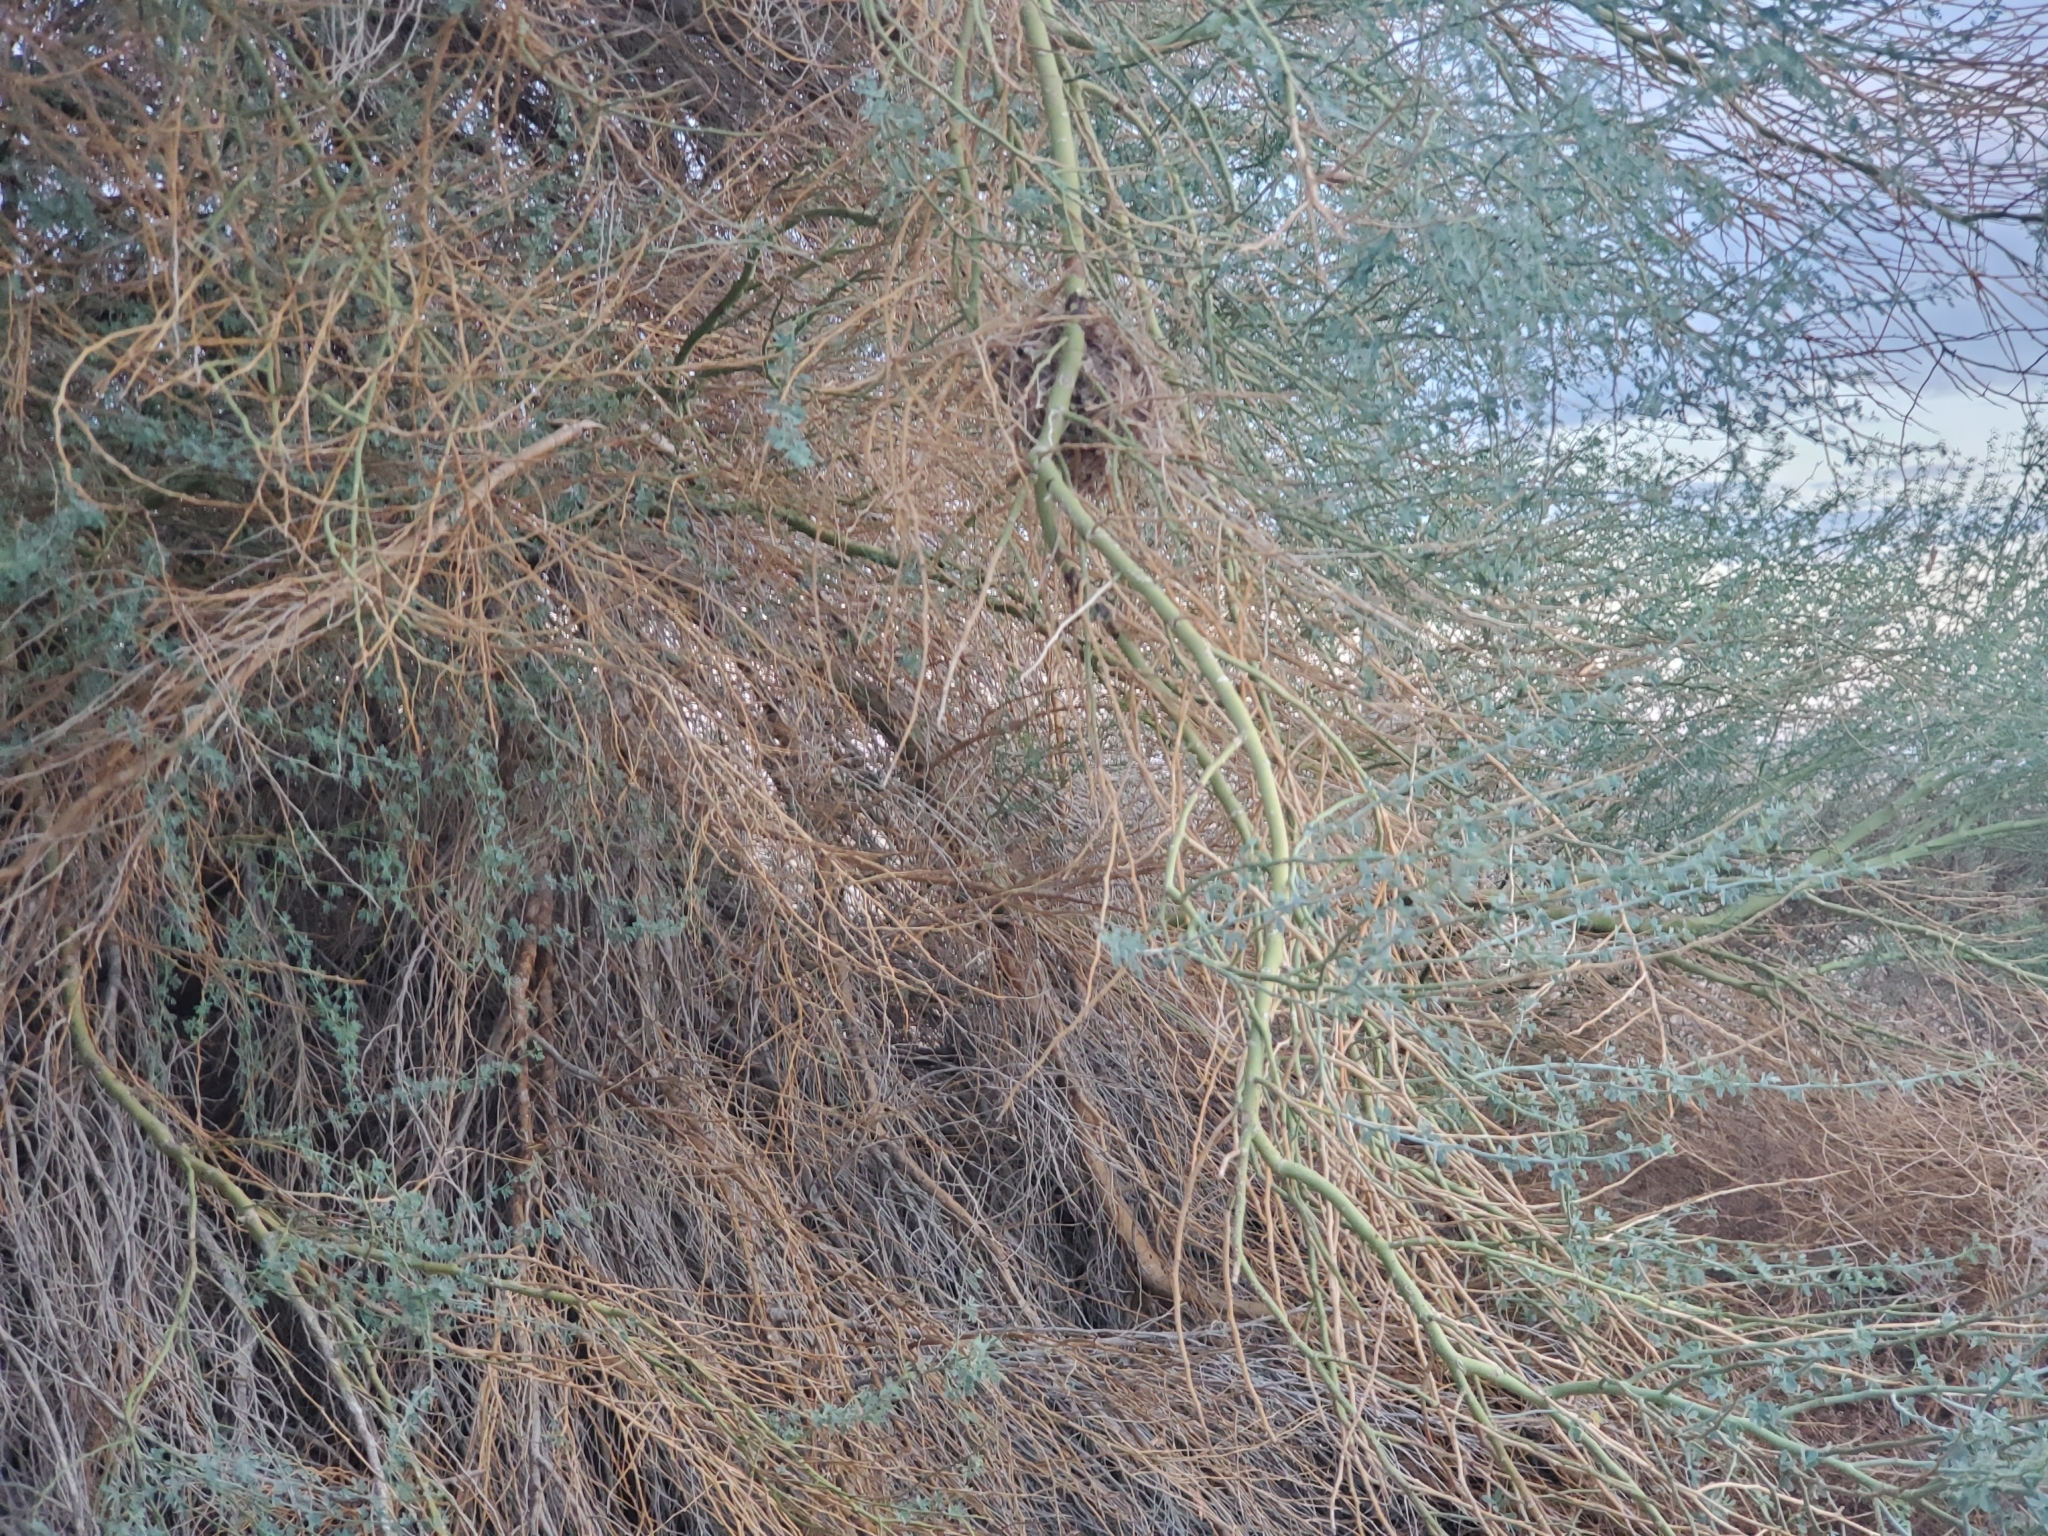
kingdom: Animalia
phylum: Chordata
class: Aves
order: Passeriformes
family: Remizidae
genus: Auriparus
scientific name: Auriparus flaviceps
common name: Verdin
